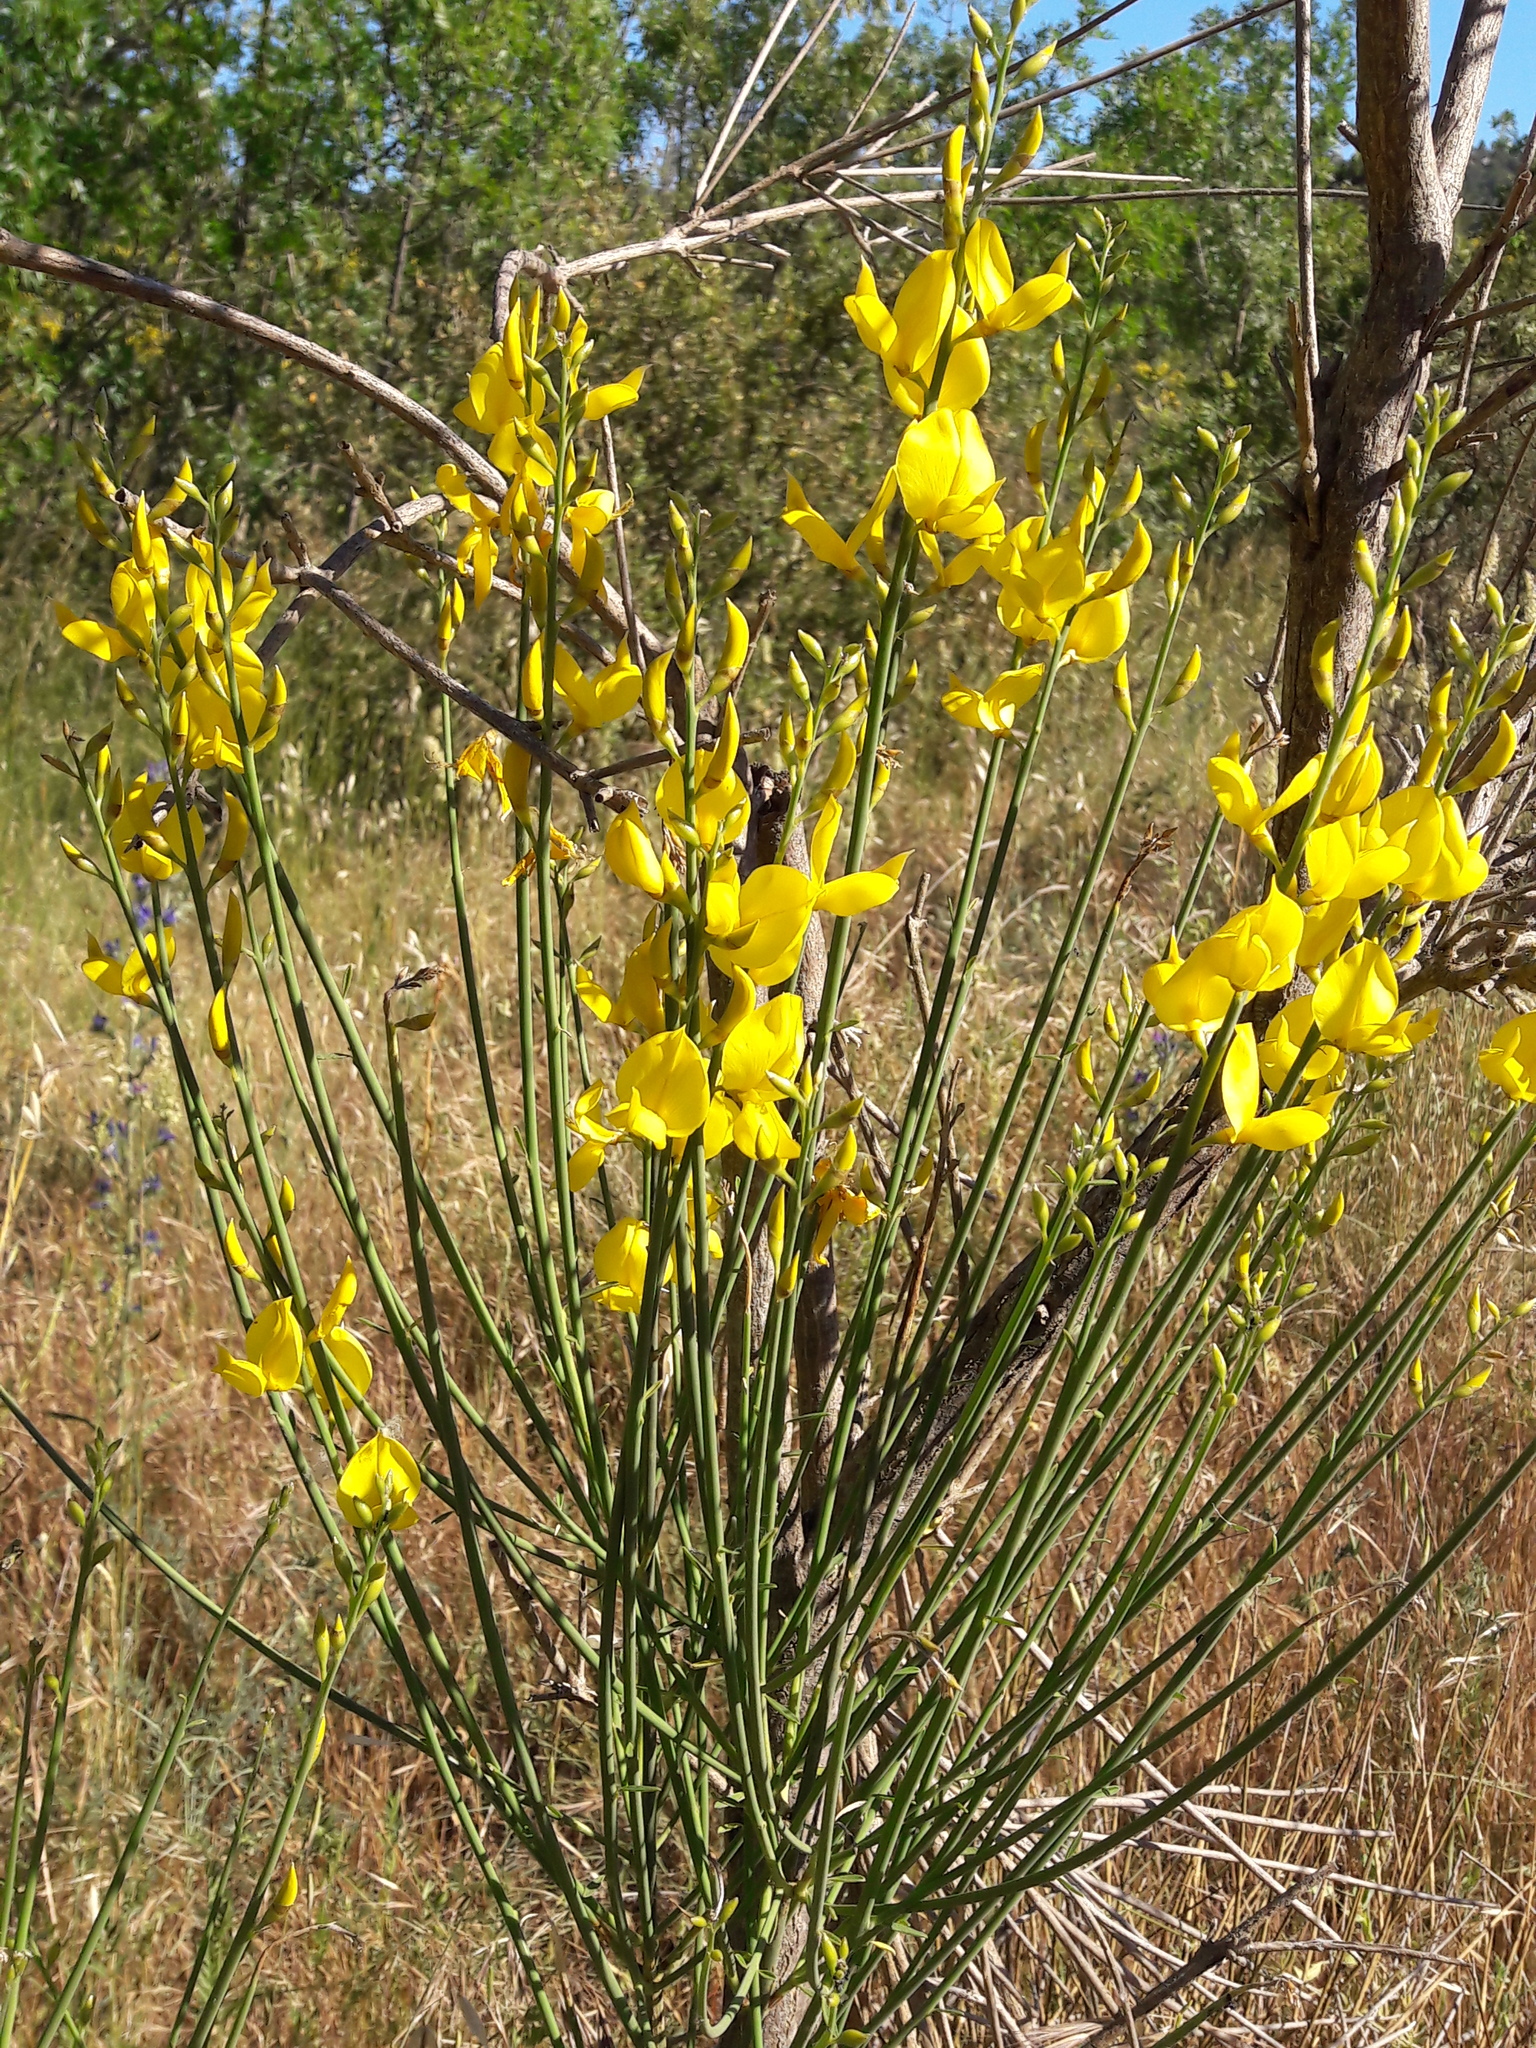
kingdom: Plantae
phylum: Tracheophyta
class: Magnoliopsida
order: Fabales
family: Fabaceae
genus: Spartium
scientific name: Spartium junceum
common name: Spanish broom
